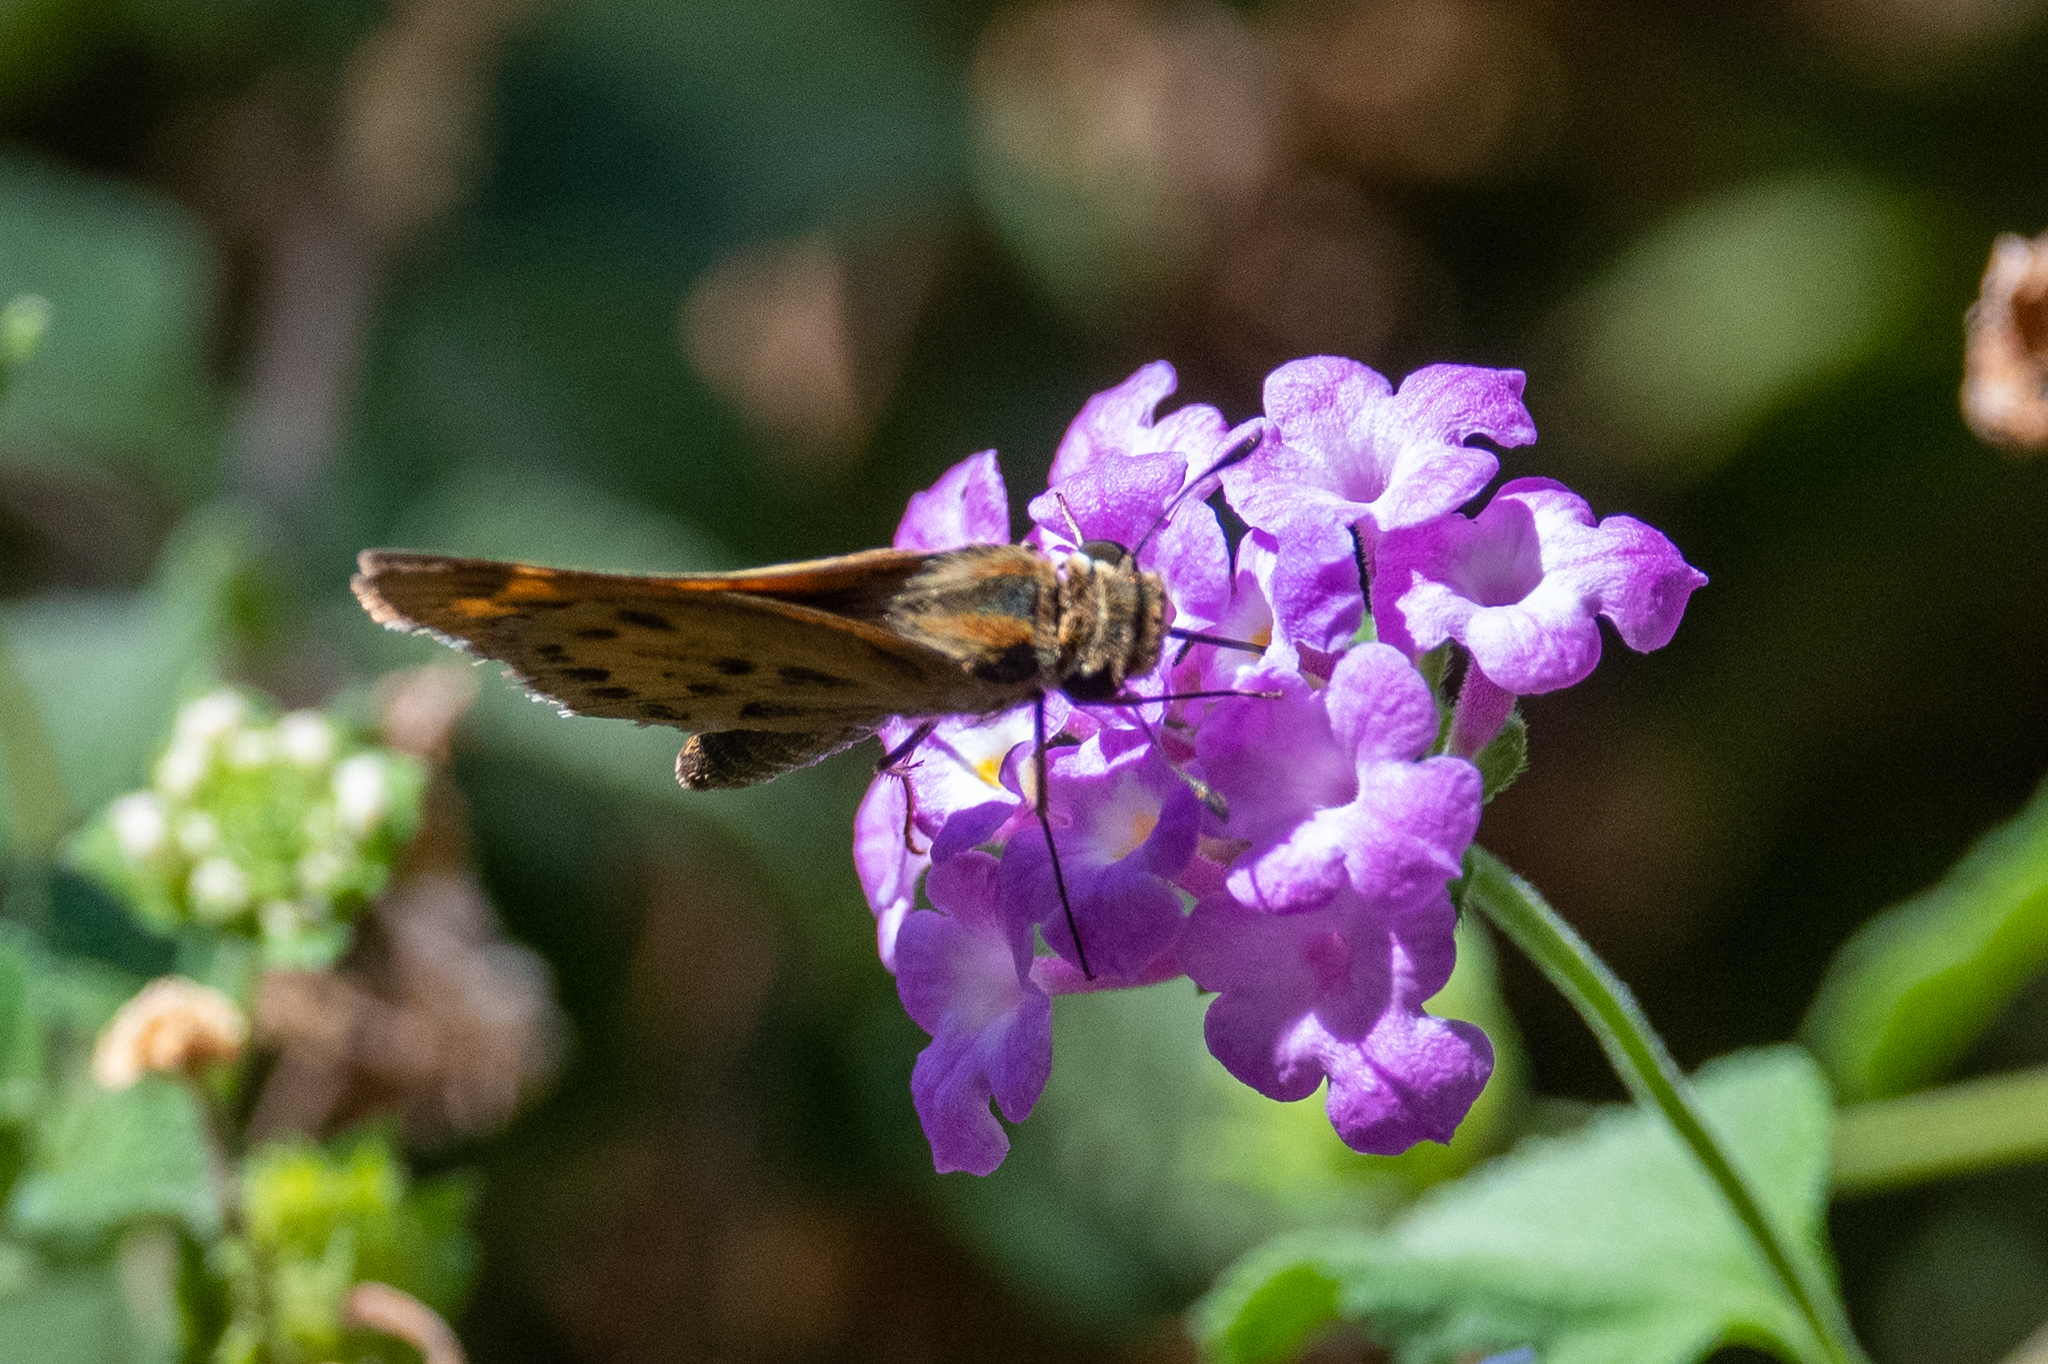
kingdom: Animalia
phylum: Arthropoda
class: Insecta
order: Lepidoptera
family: Hesperiidae
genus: Hylephila
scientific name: Hylephila phyleus
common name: Fiery skipper
